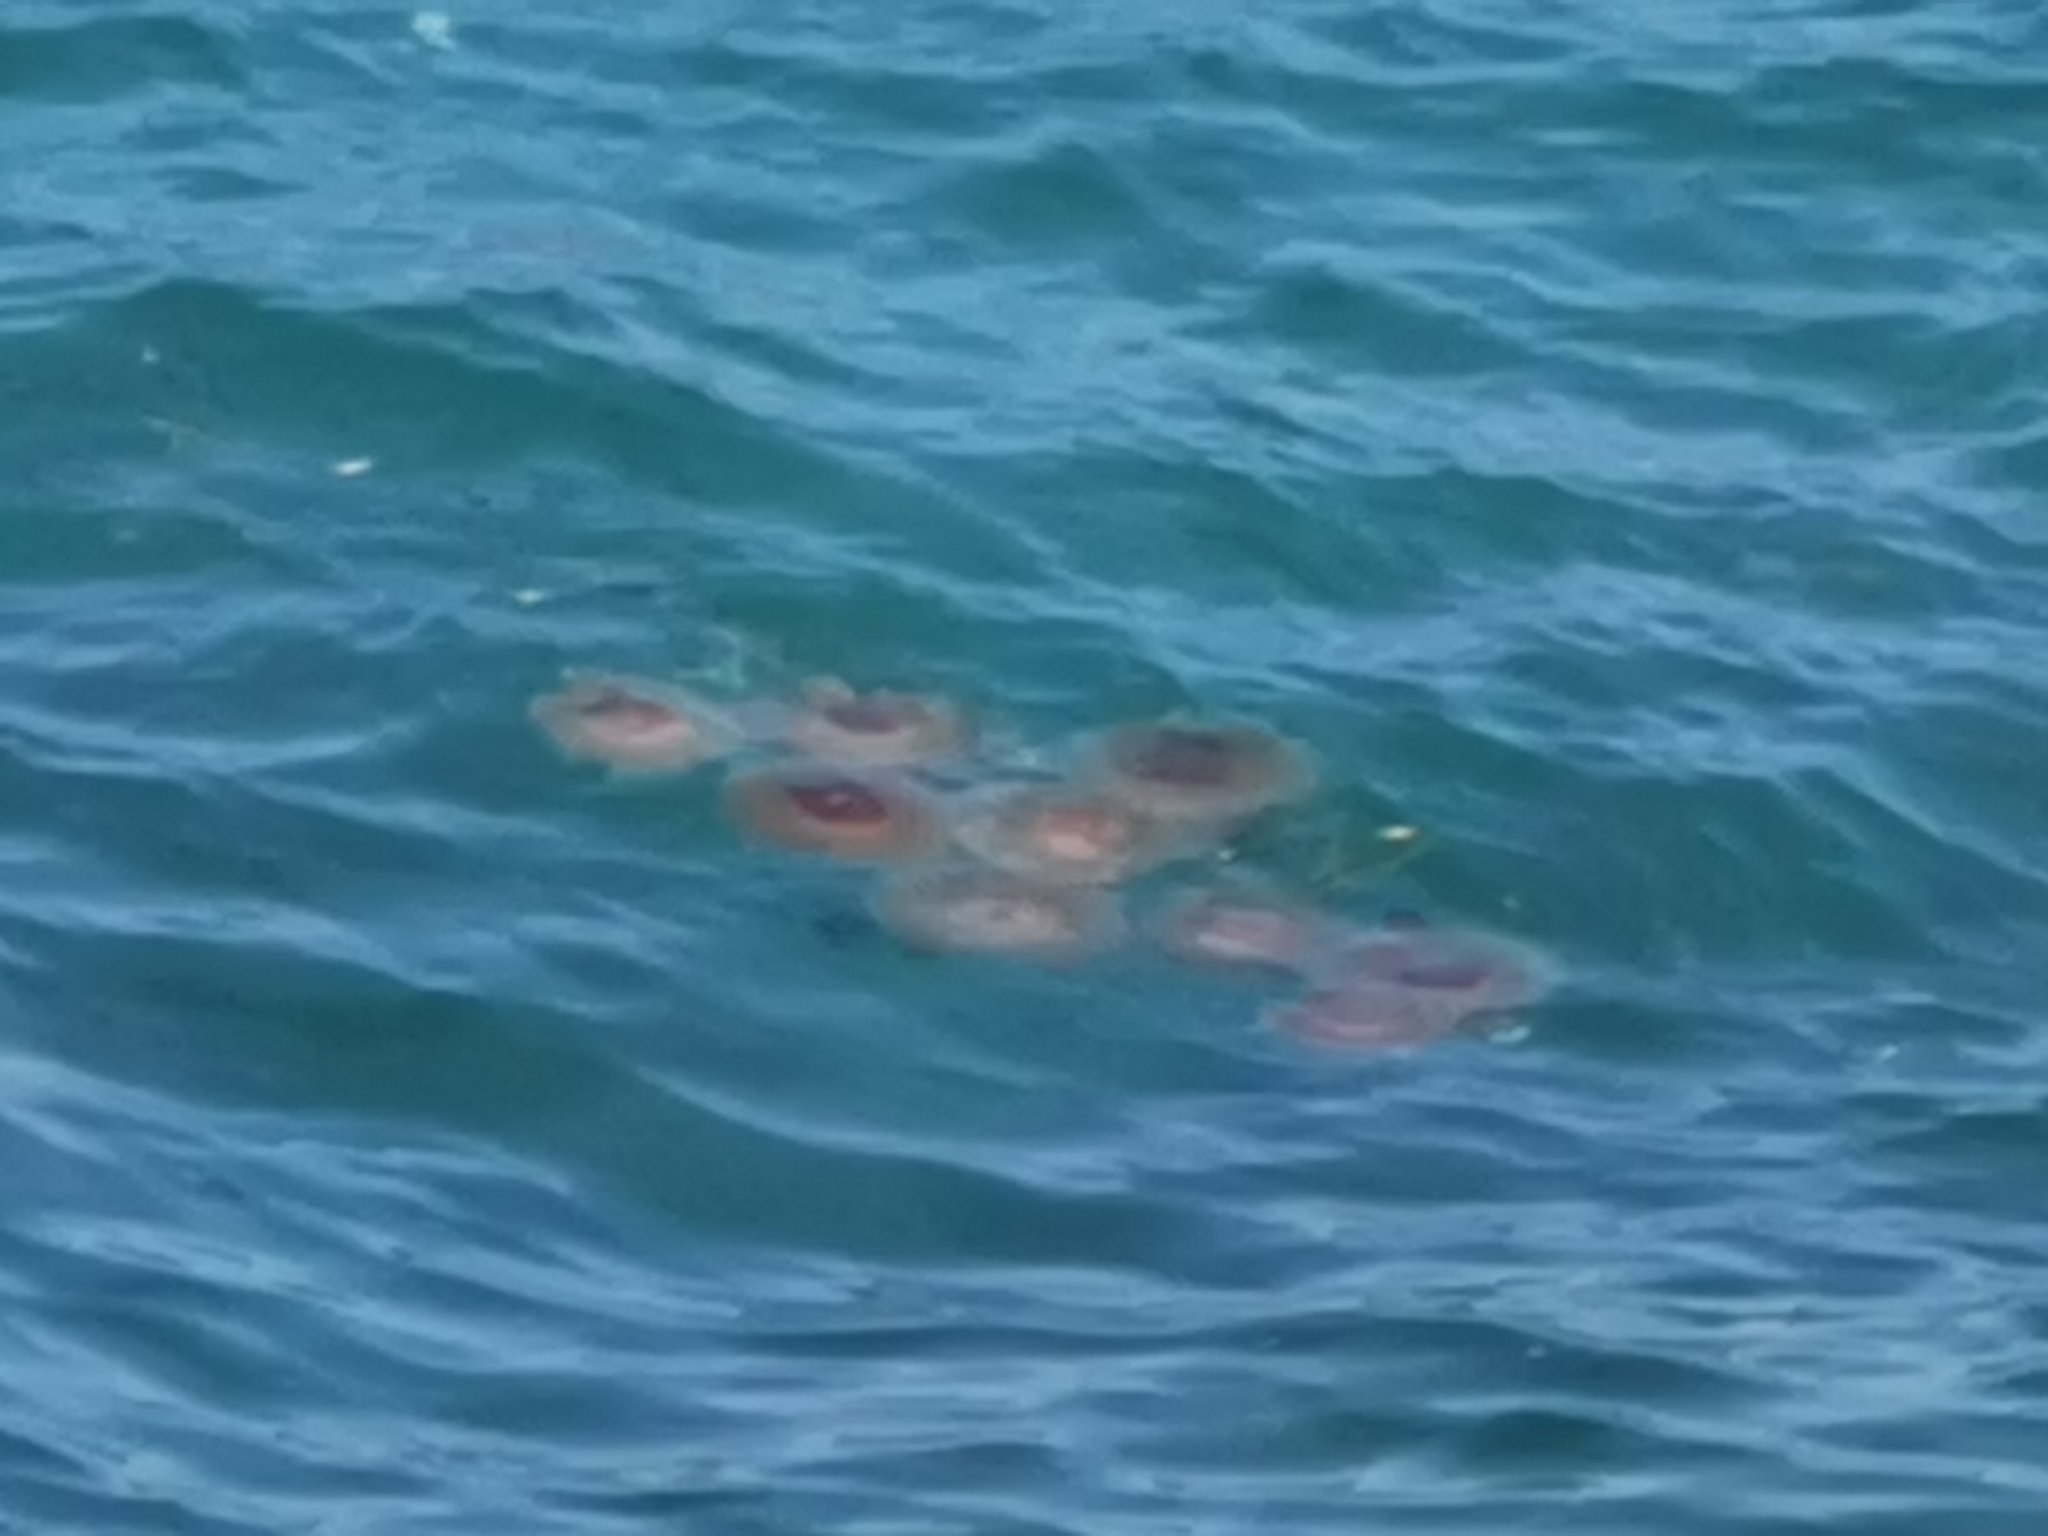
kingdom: Animalia
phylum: Cnidaria
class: Scyphozoa
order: Rhizostomeae
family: Cepheidae
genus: Cotylorhiza
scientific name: Cotylorhiza tuberculata
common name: Mediterranean jelly
